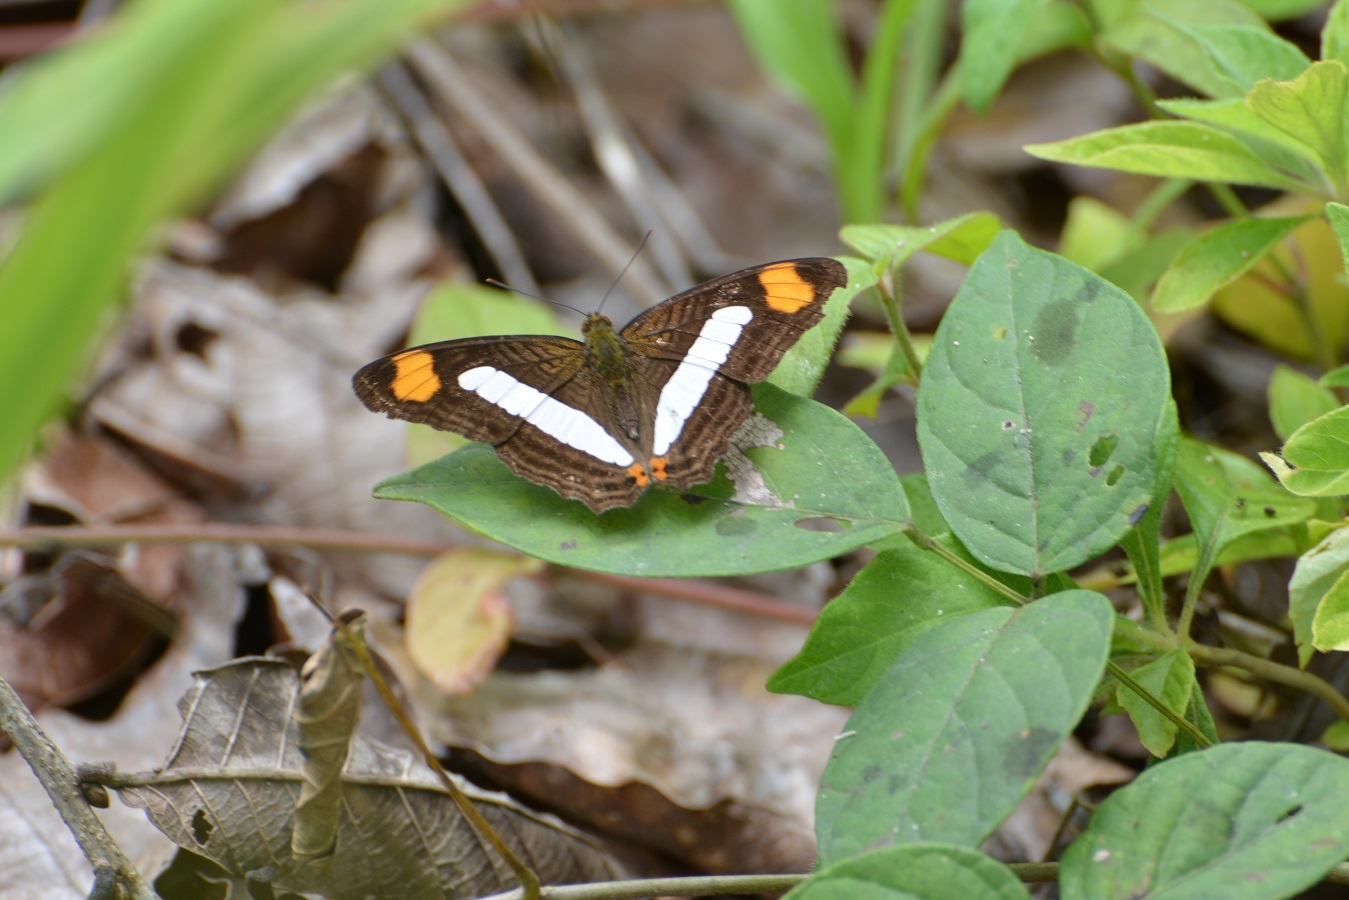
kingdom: Animalia
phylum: Arthropoda
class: Insecta
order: Lepidoptera
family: Nymphalidae
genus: Limenitis
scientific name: Limenitis iphiclus
